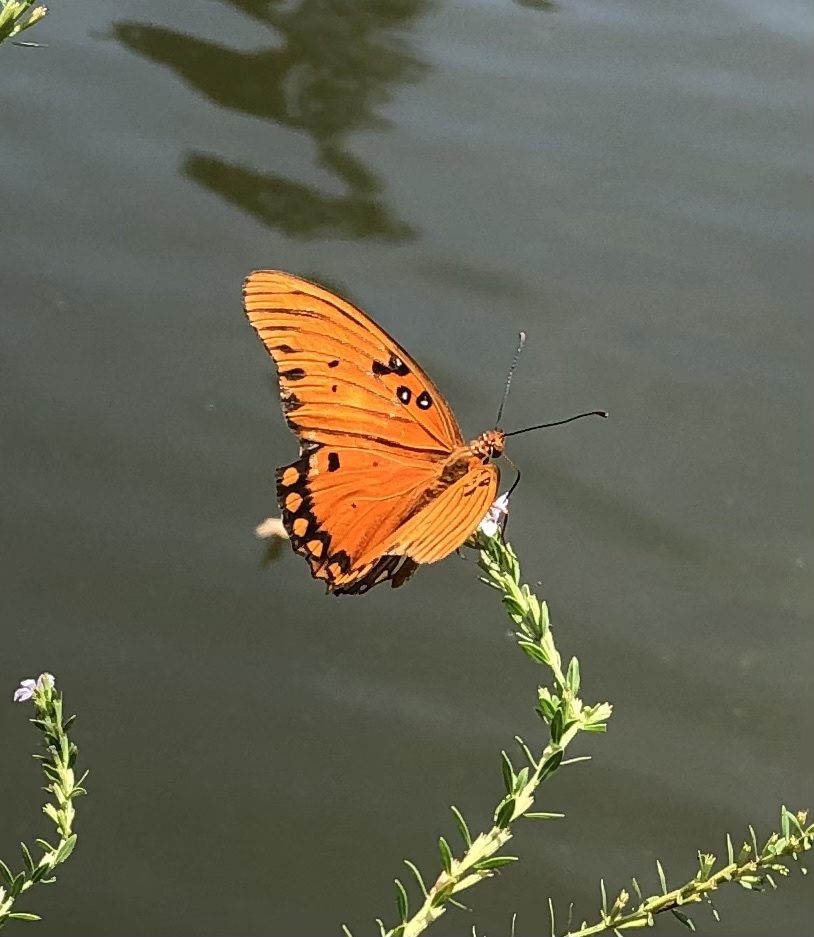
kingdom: Animalia
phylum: Arthropoda
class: Insecta
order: Lepidoptera
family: Nymphalidae
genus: Dione
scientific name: Dione vanillae
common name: Gulf fritillary
